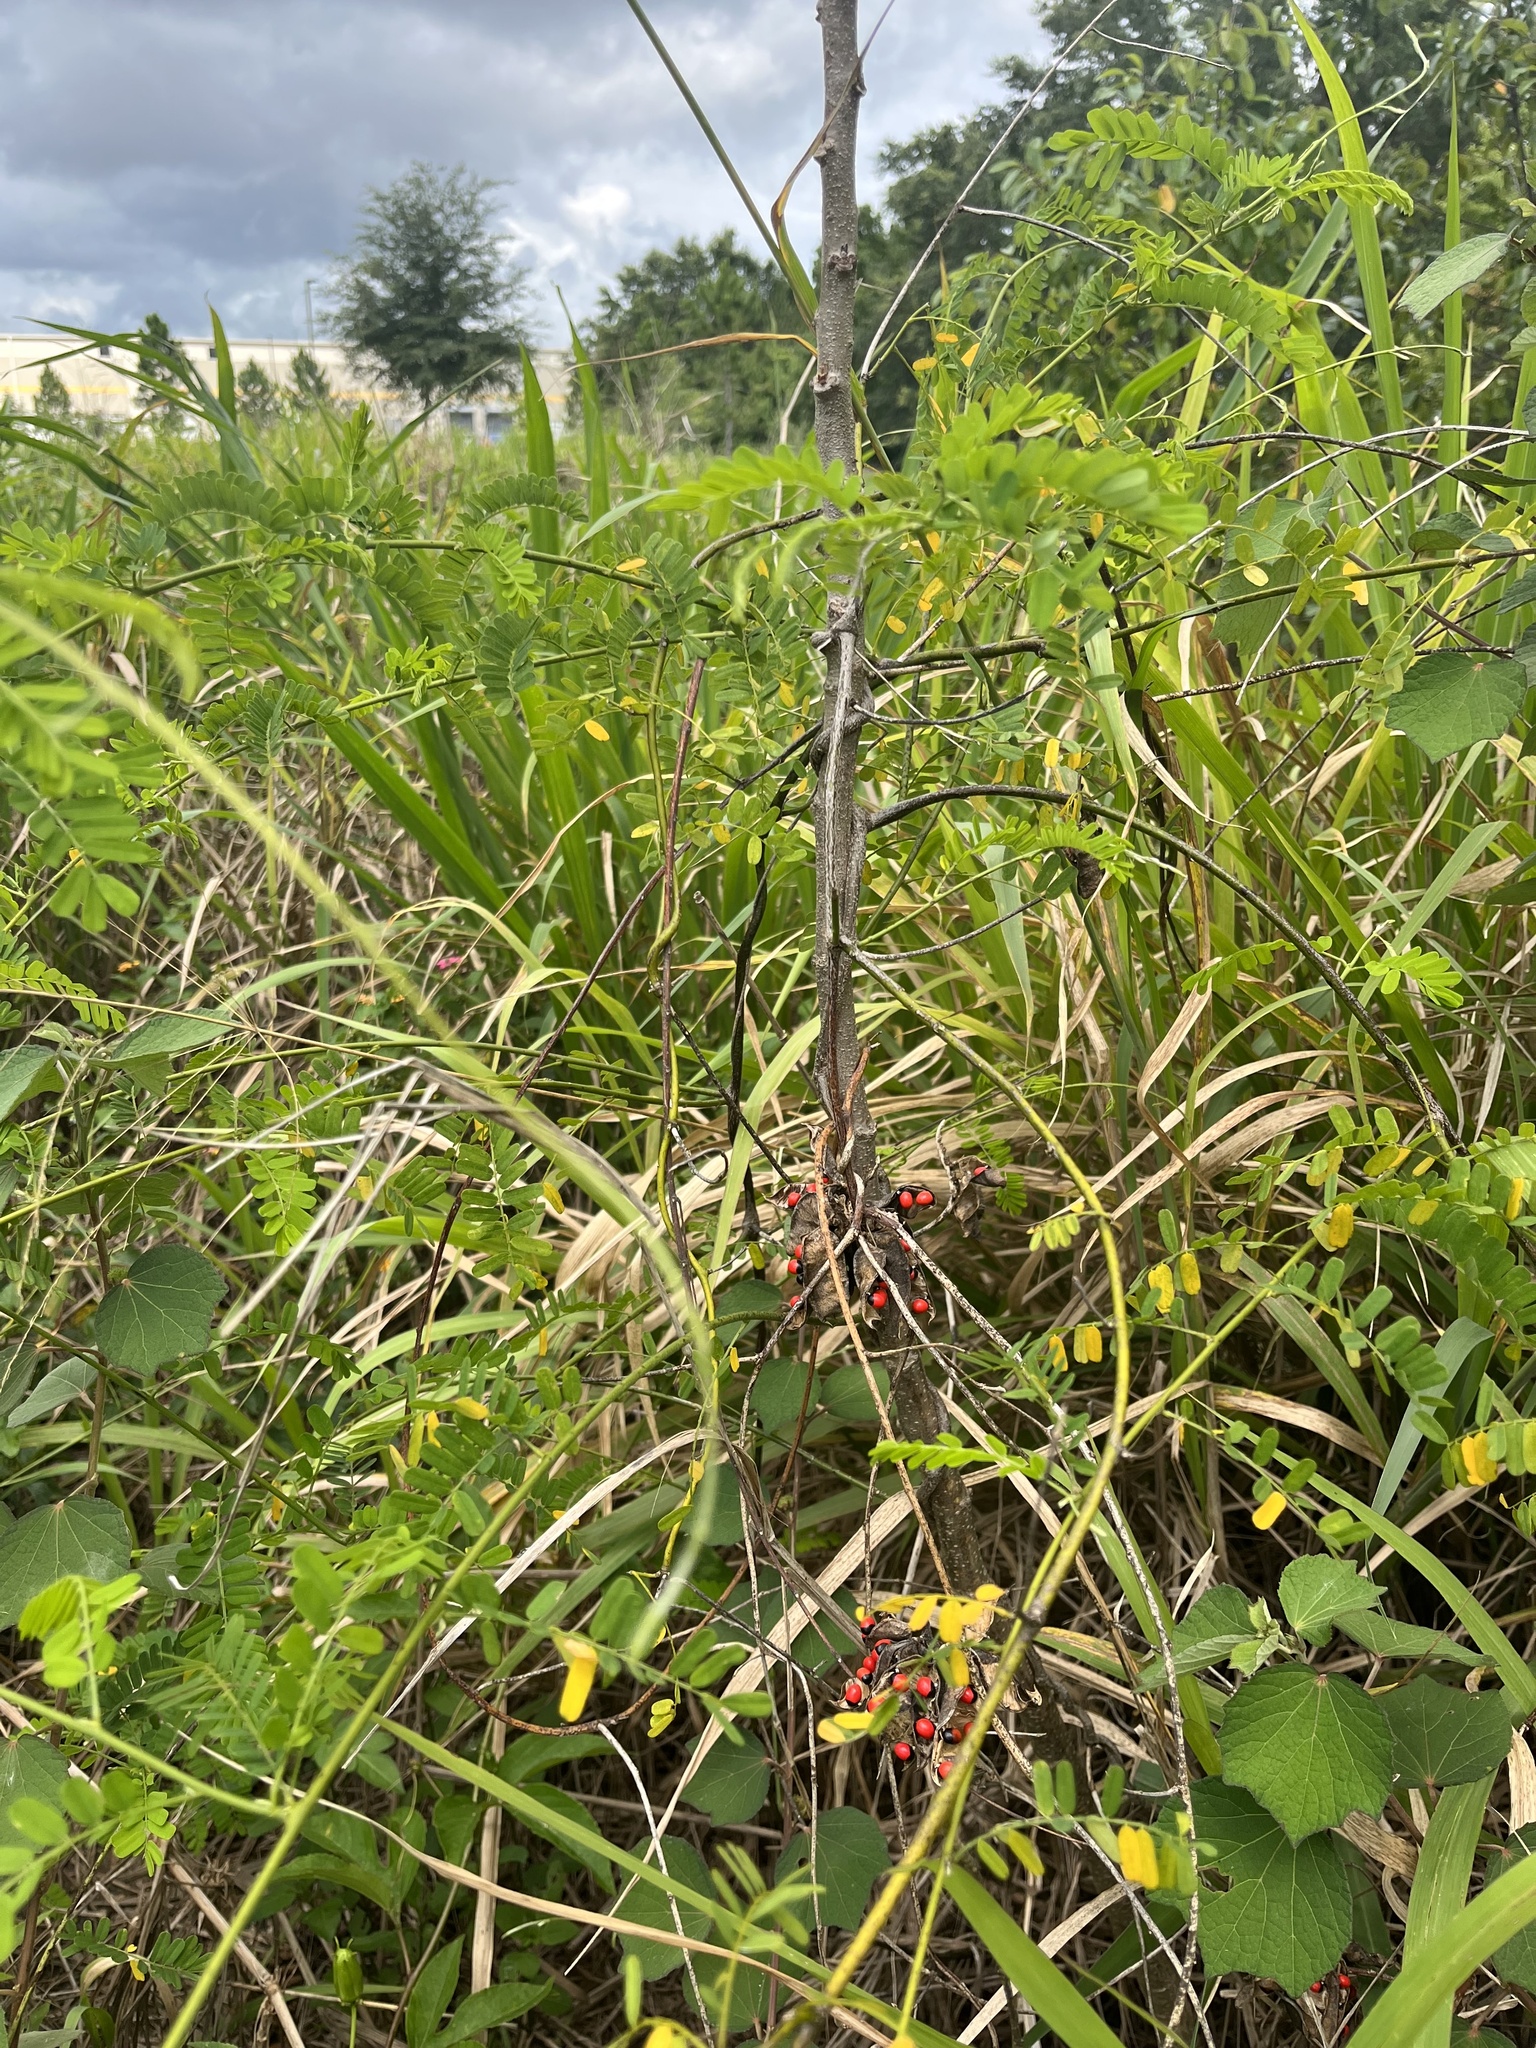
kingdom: Plantae
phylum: Tracheophyta
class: Magnoliopsida
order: Fabales
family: Fabaceae
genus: Abrus
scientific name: Abrus precatorius
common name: Rosarypea
